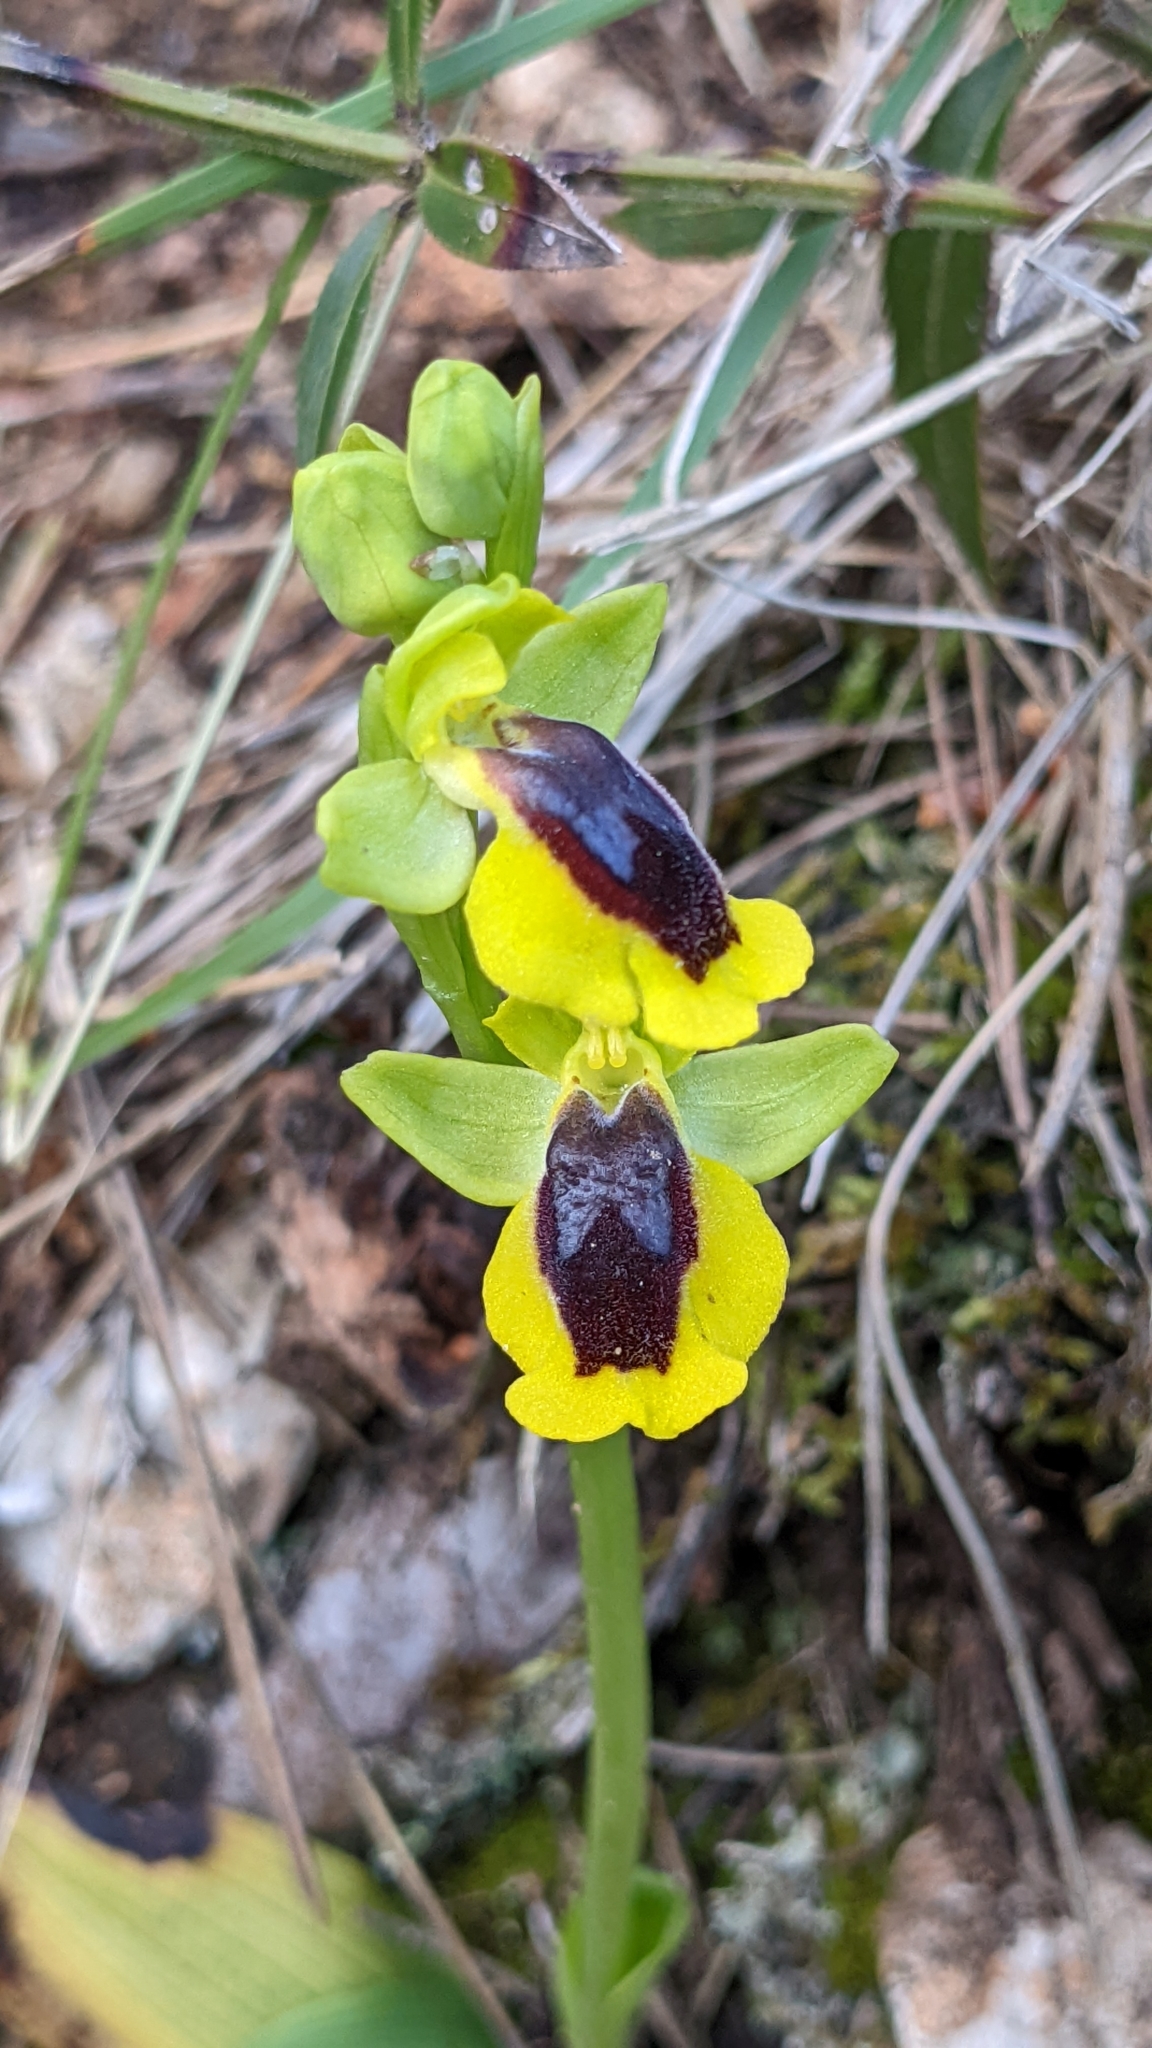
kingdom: Plantae
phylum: Tracheophyta
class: Liliopsida
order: Asparagales
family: Orchidaceae
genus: Ophrys
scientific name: Ophrys lutea
